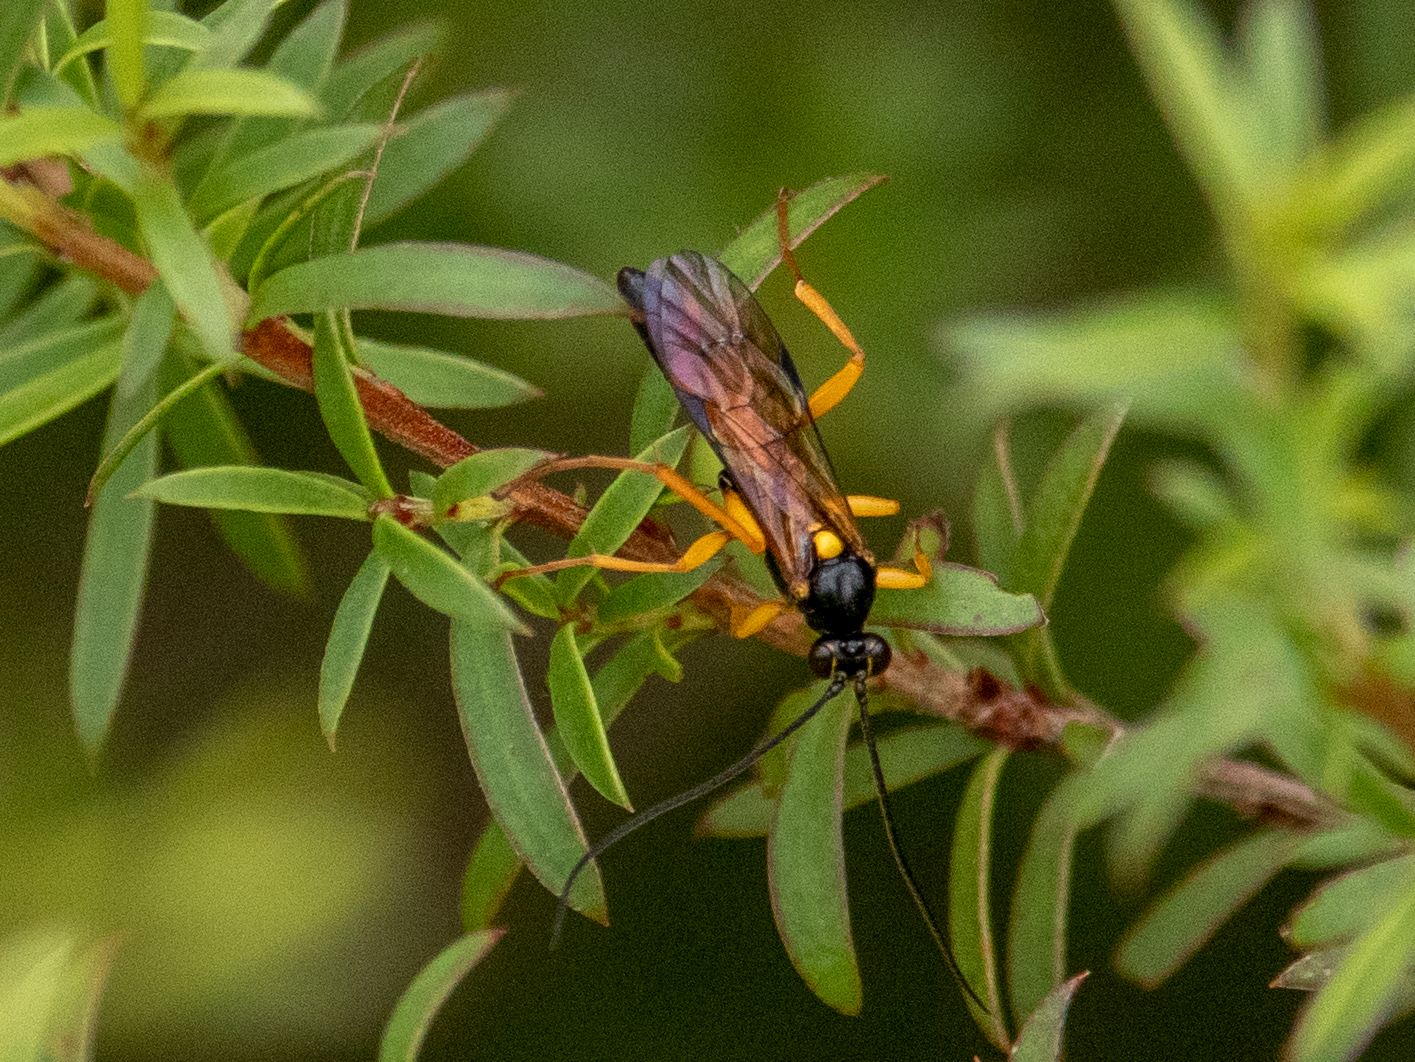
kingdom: Animalia
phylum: Arthropoda
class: Insecta
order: Hymenoptera
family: Ichneumonidae
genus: Degithina
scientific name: Degithina sollicitoria
